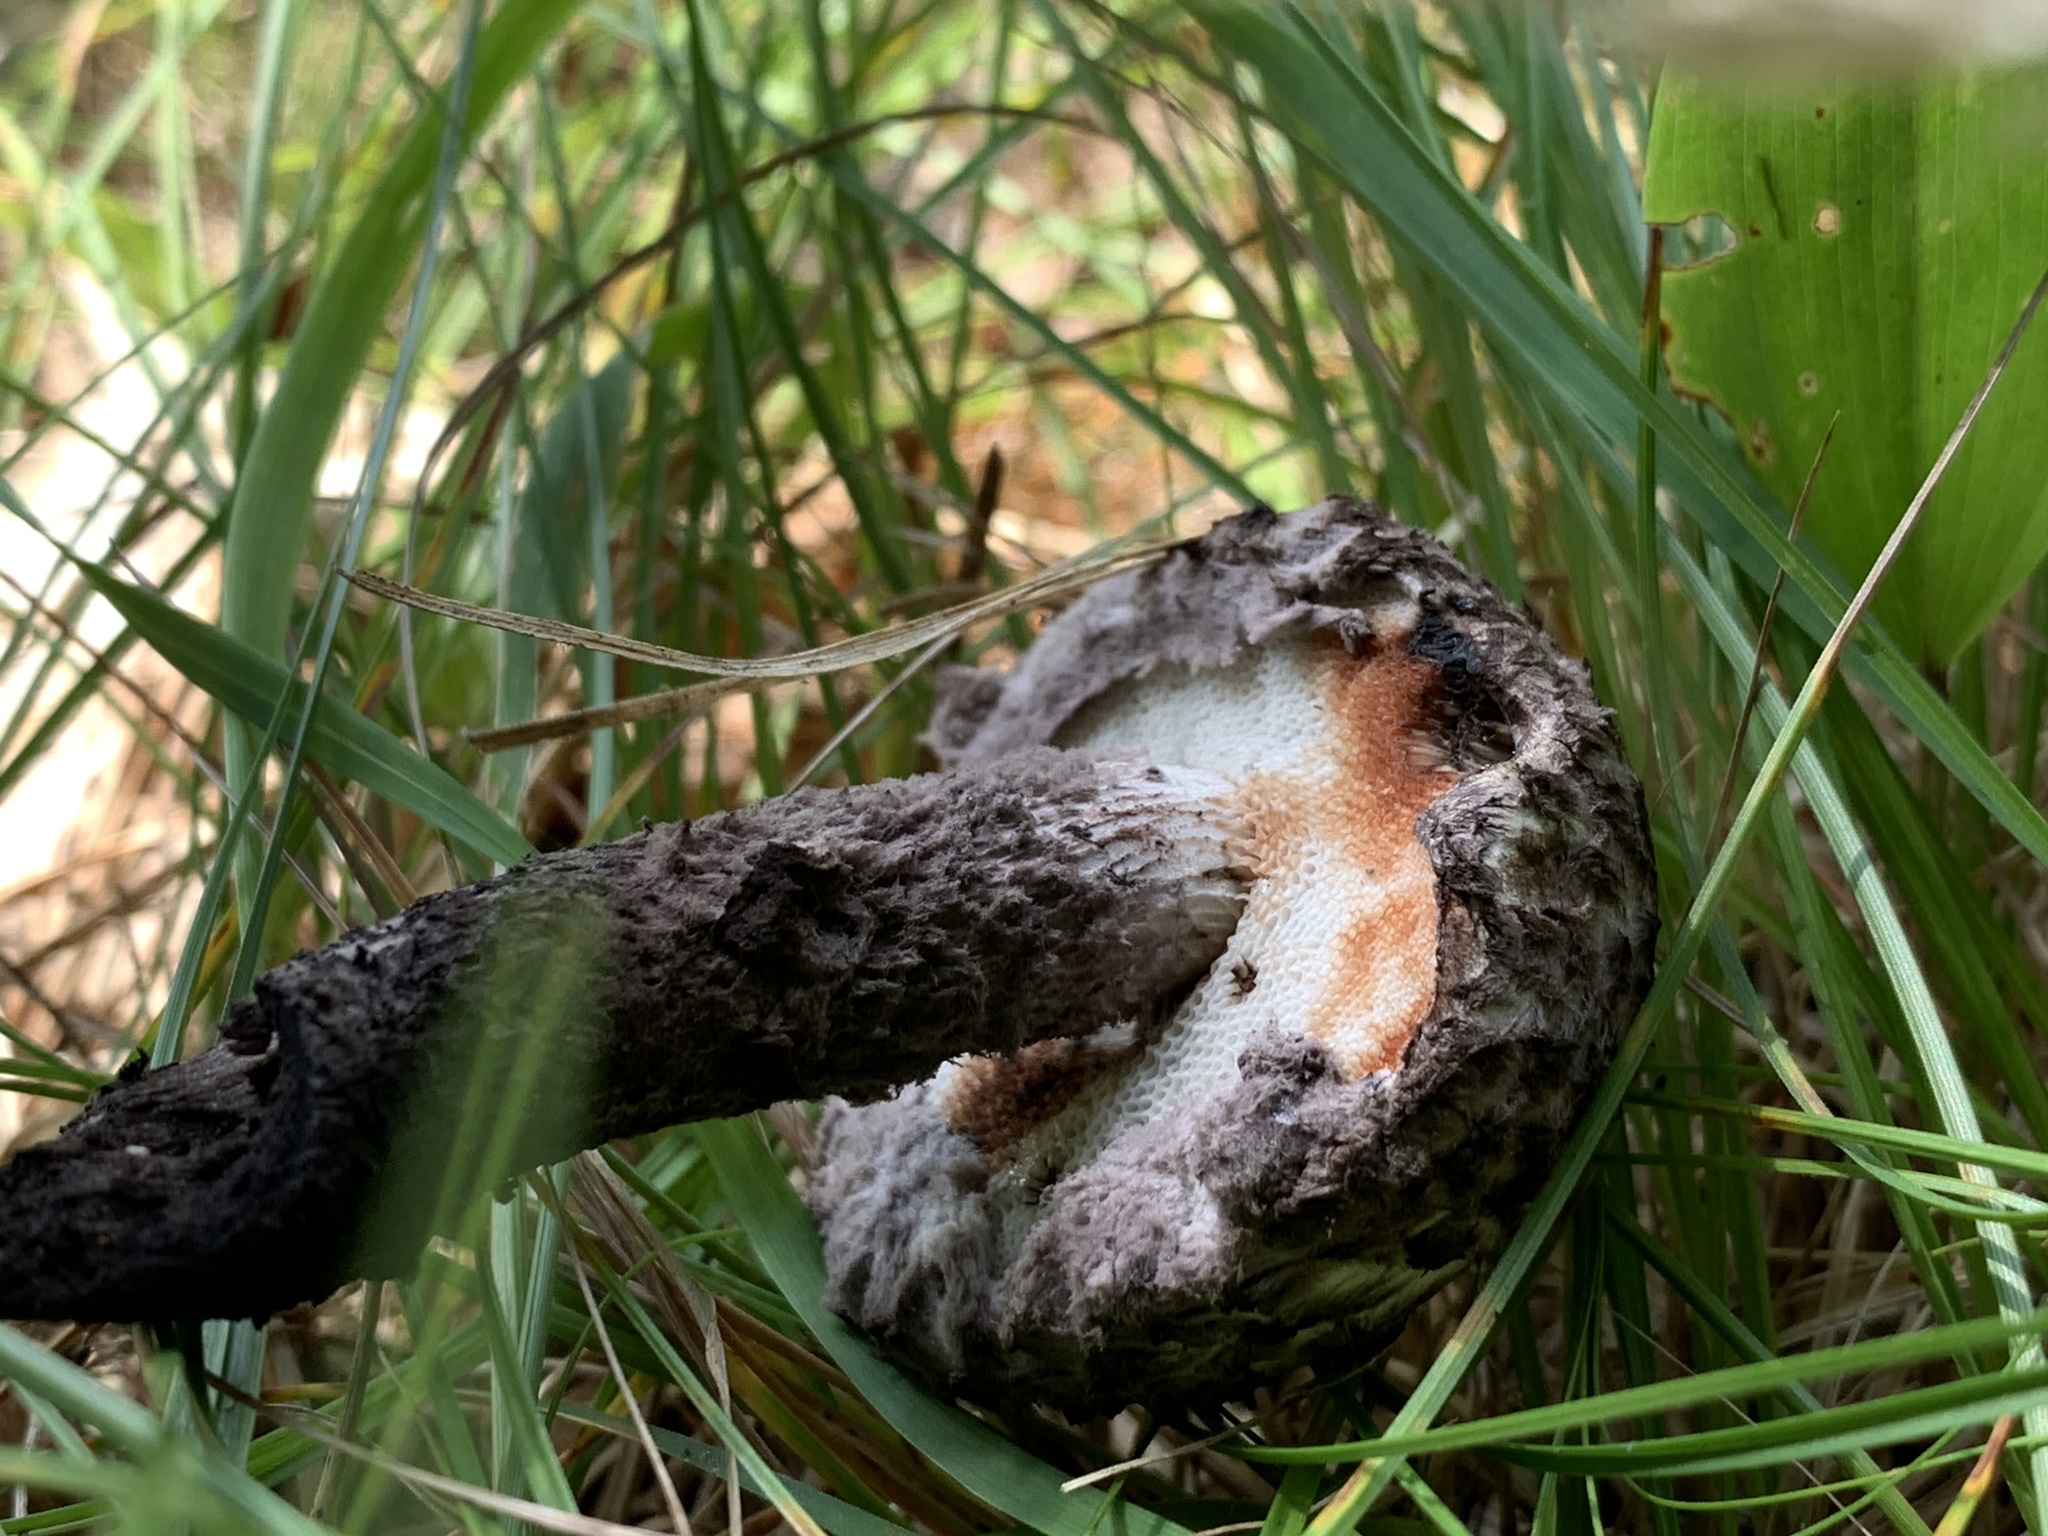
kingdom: Fungi
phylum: Basidiomycota
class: Agaricomycetes
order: Boletales
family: Boletaceae
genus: Strobilomyces
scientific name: Strobilomyces strobilaceus
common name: Old man of the woods
